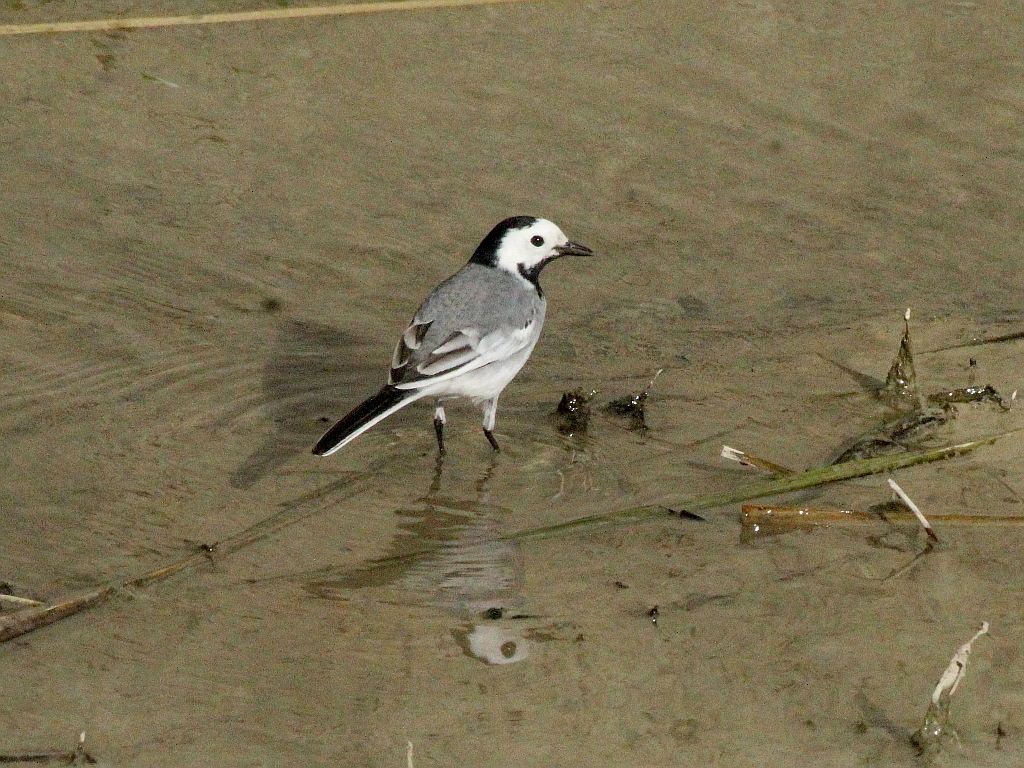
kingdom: Animalia
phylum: Chordata
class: Aves
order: Passeriformes
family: Motacillidae
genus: Motacilla
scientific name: Motacilla alba
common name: White wagtail
